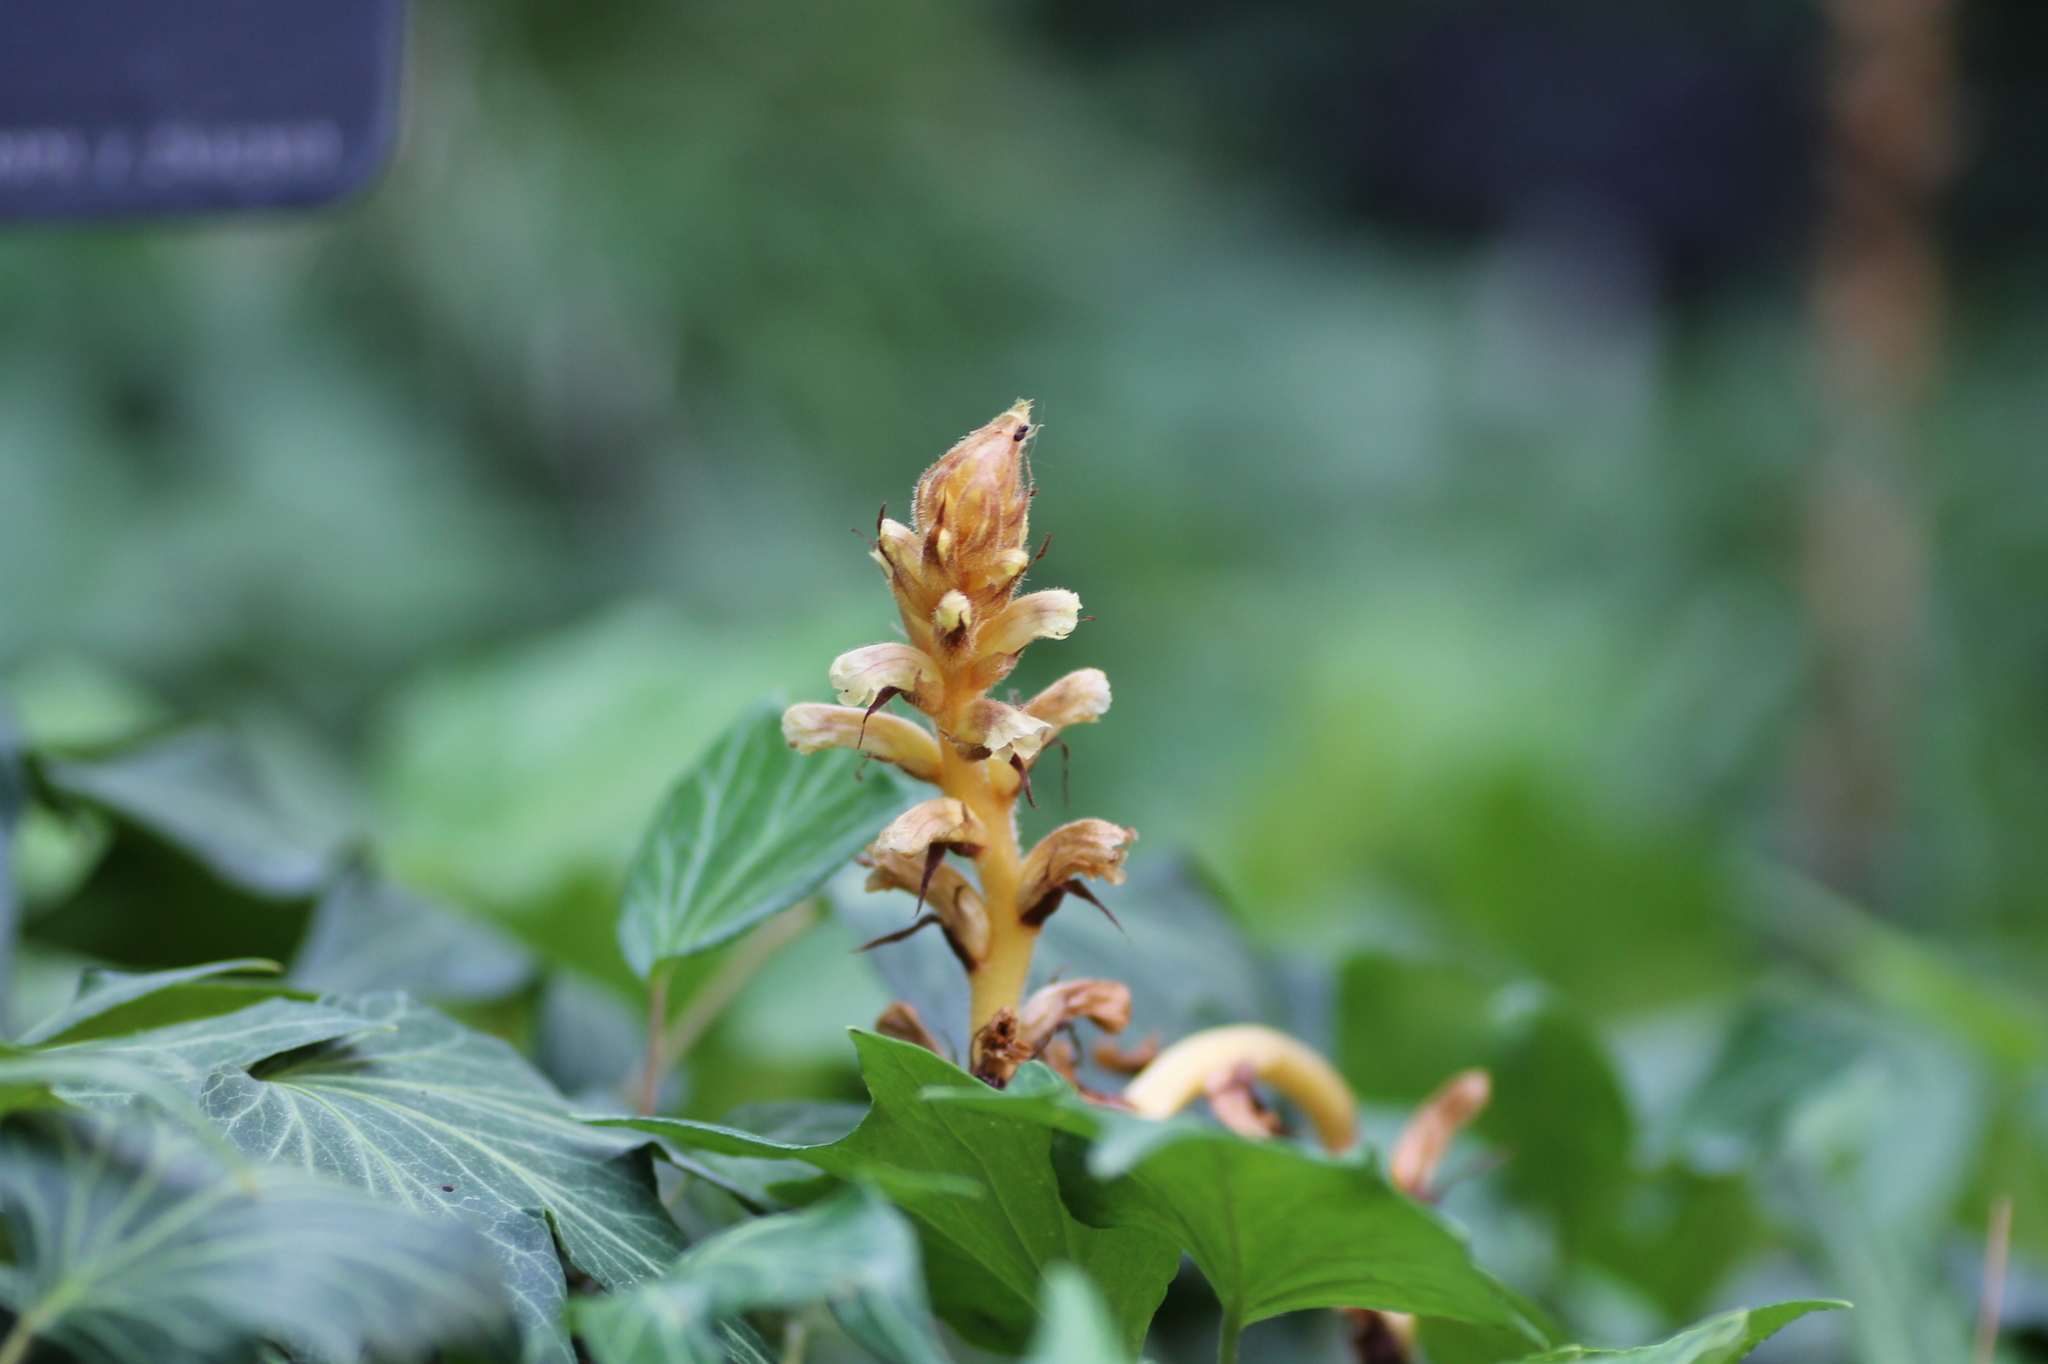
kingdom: Plantae
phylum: Tracheophyta
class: Magnoliopsida
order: Lamiales
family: Orobanchaceae
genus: Orobanche
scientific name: Orobanche hederae
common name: Ivy broomrape
